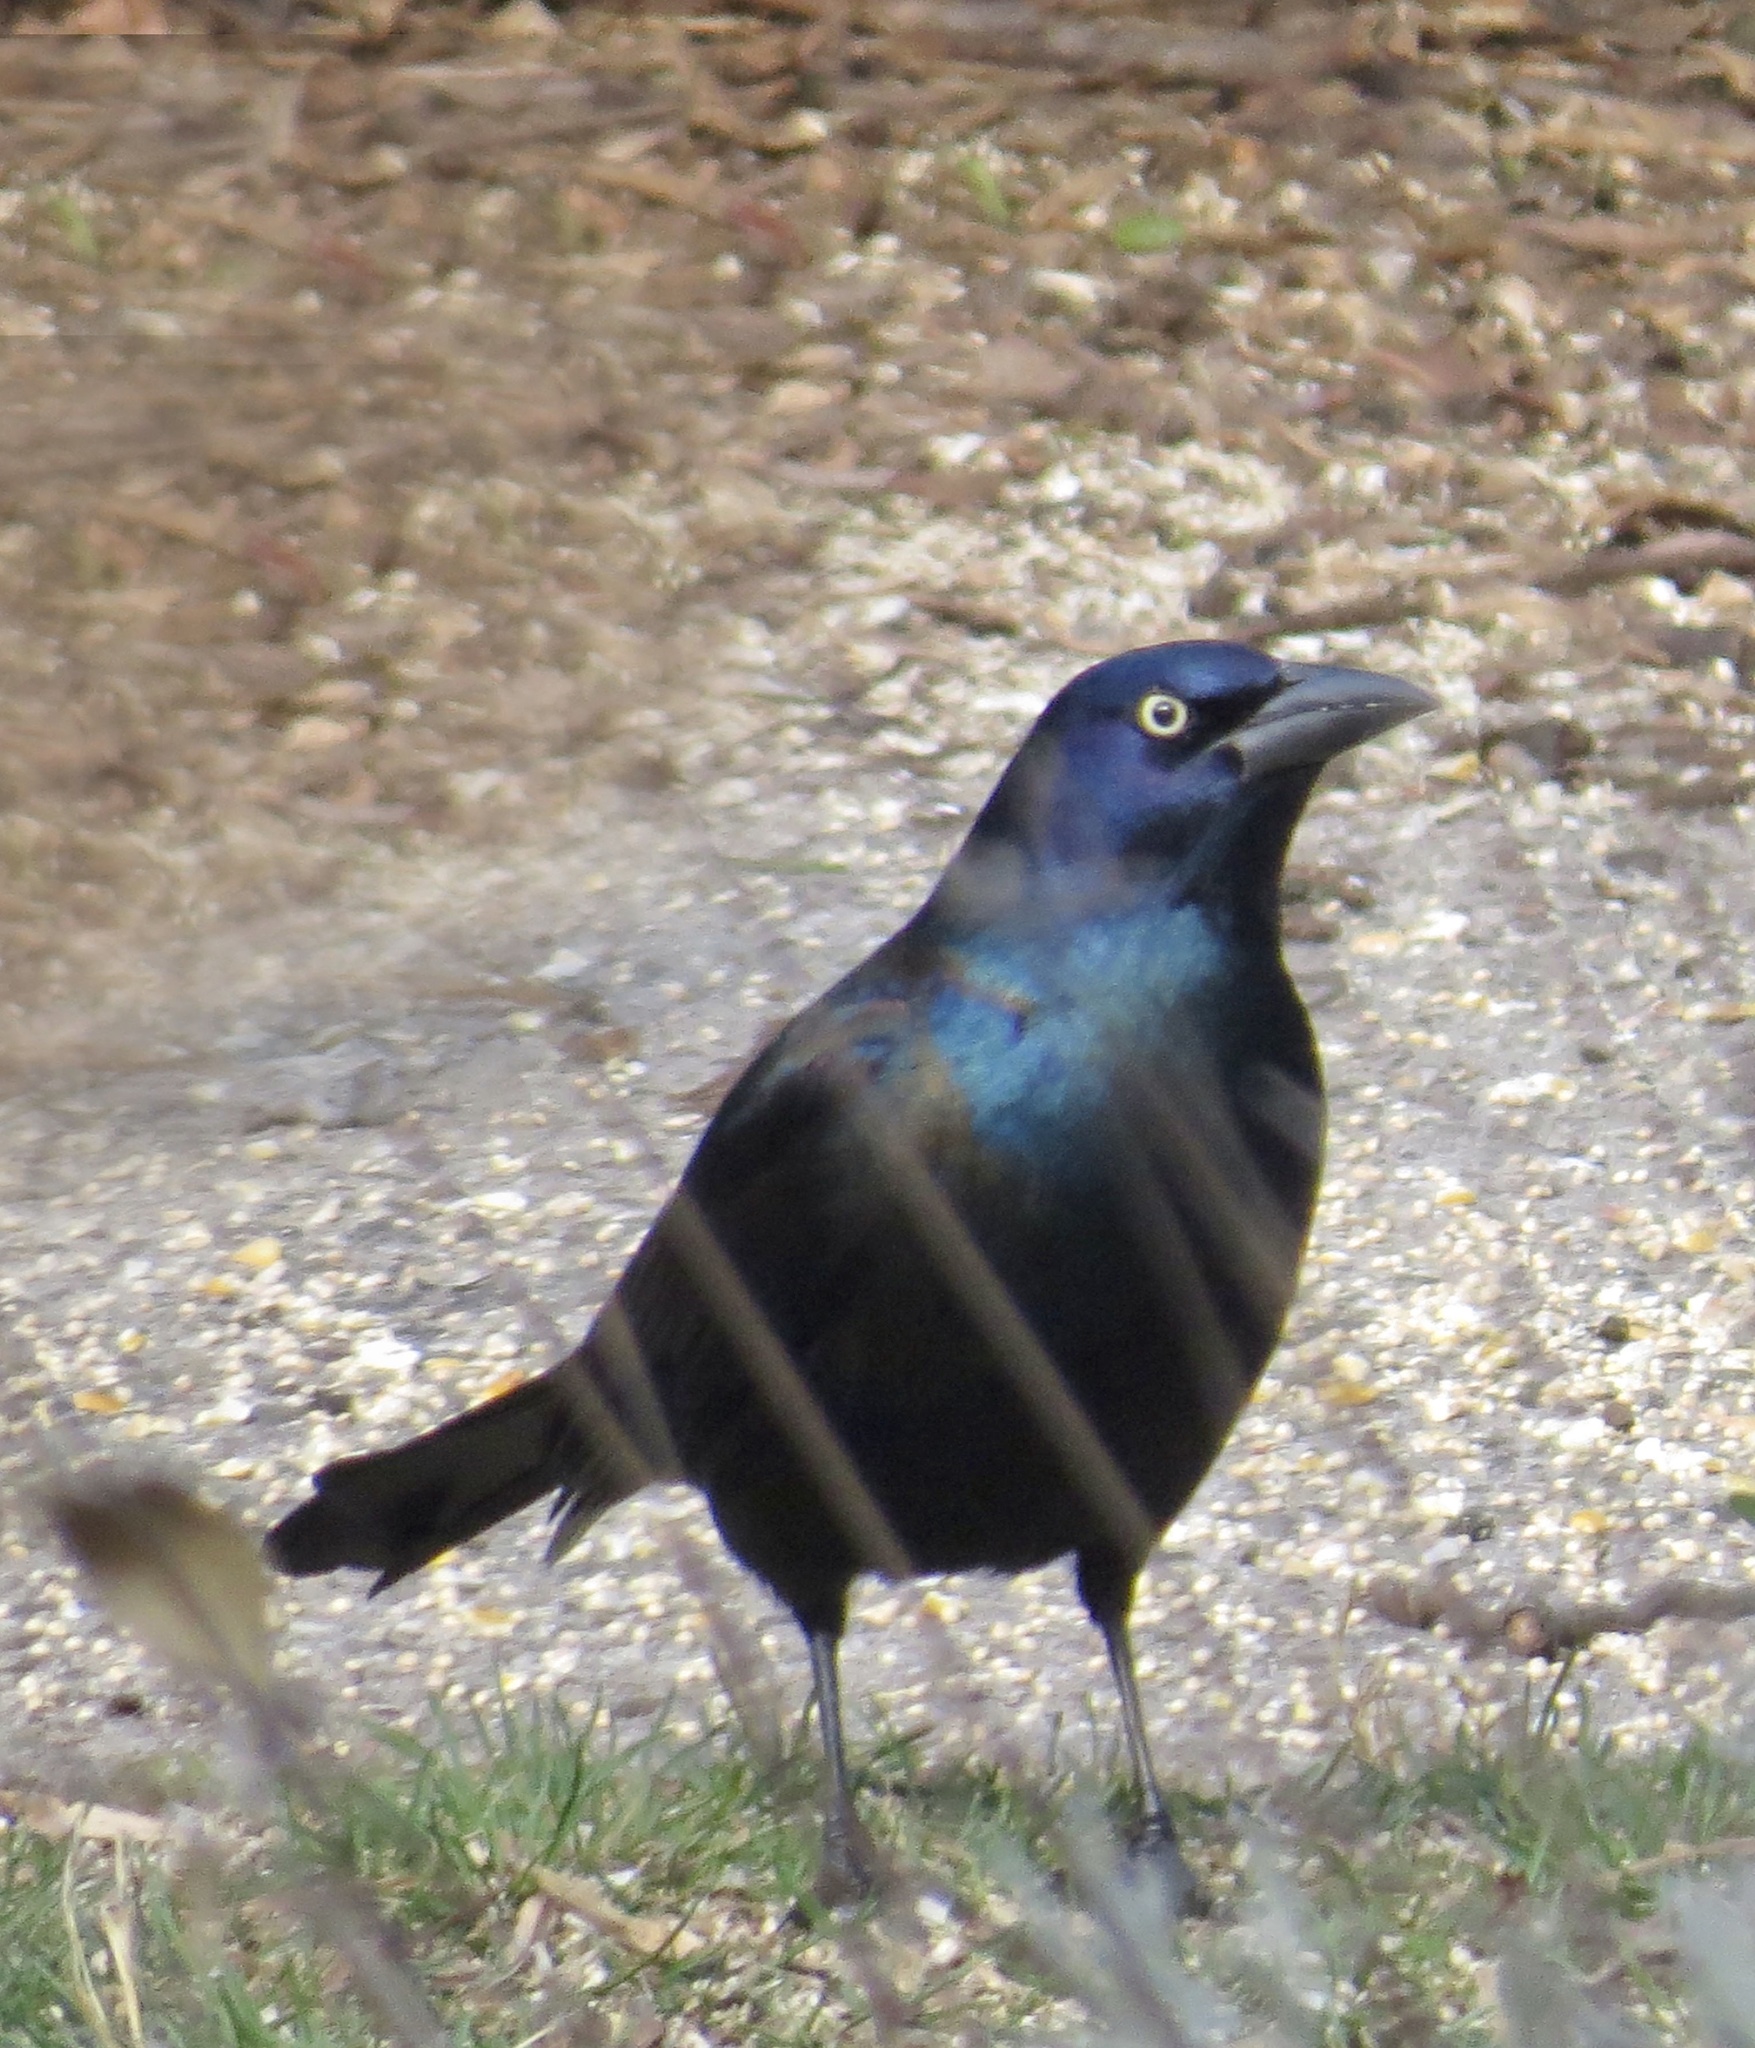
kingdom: Animalia
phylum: Chordata
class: Aves
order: Passeriformes
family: Icteridae
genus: Quiscalus
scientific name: Quiscalus quiscula
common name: Common grackle
